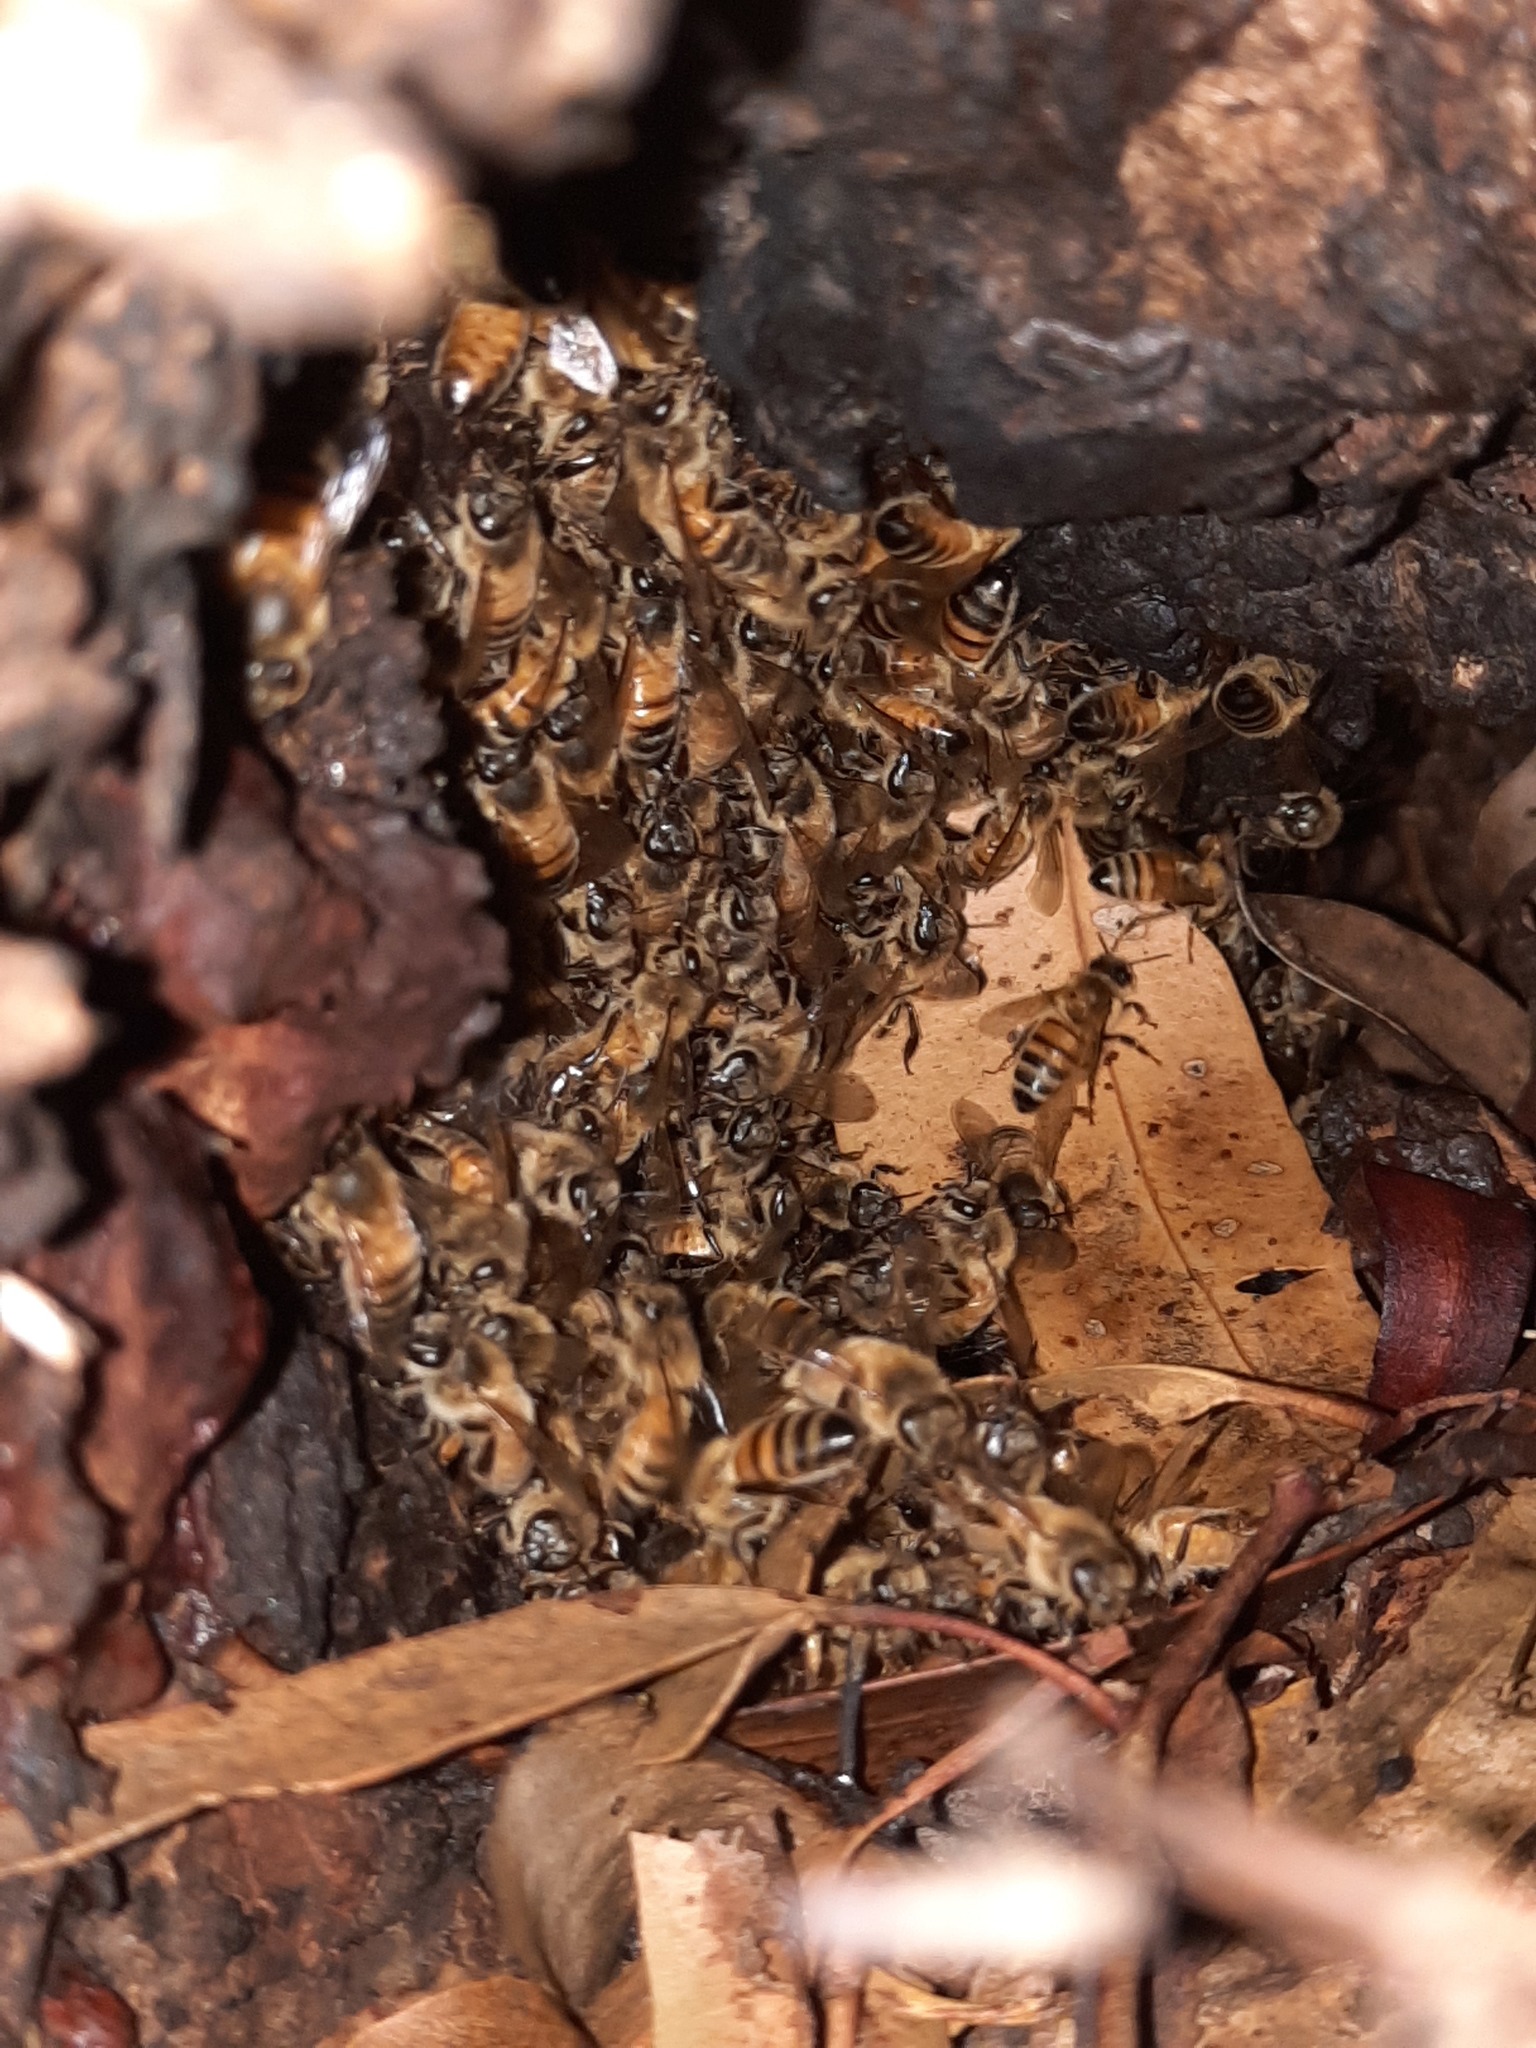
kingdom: Animalia
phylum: Arthropoda
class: Insecta
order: Hymenoptera
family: Apidae
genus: Apis
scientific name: Apis mellifera
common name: Honey bee
